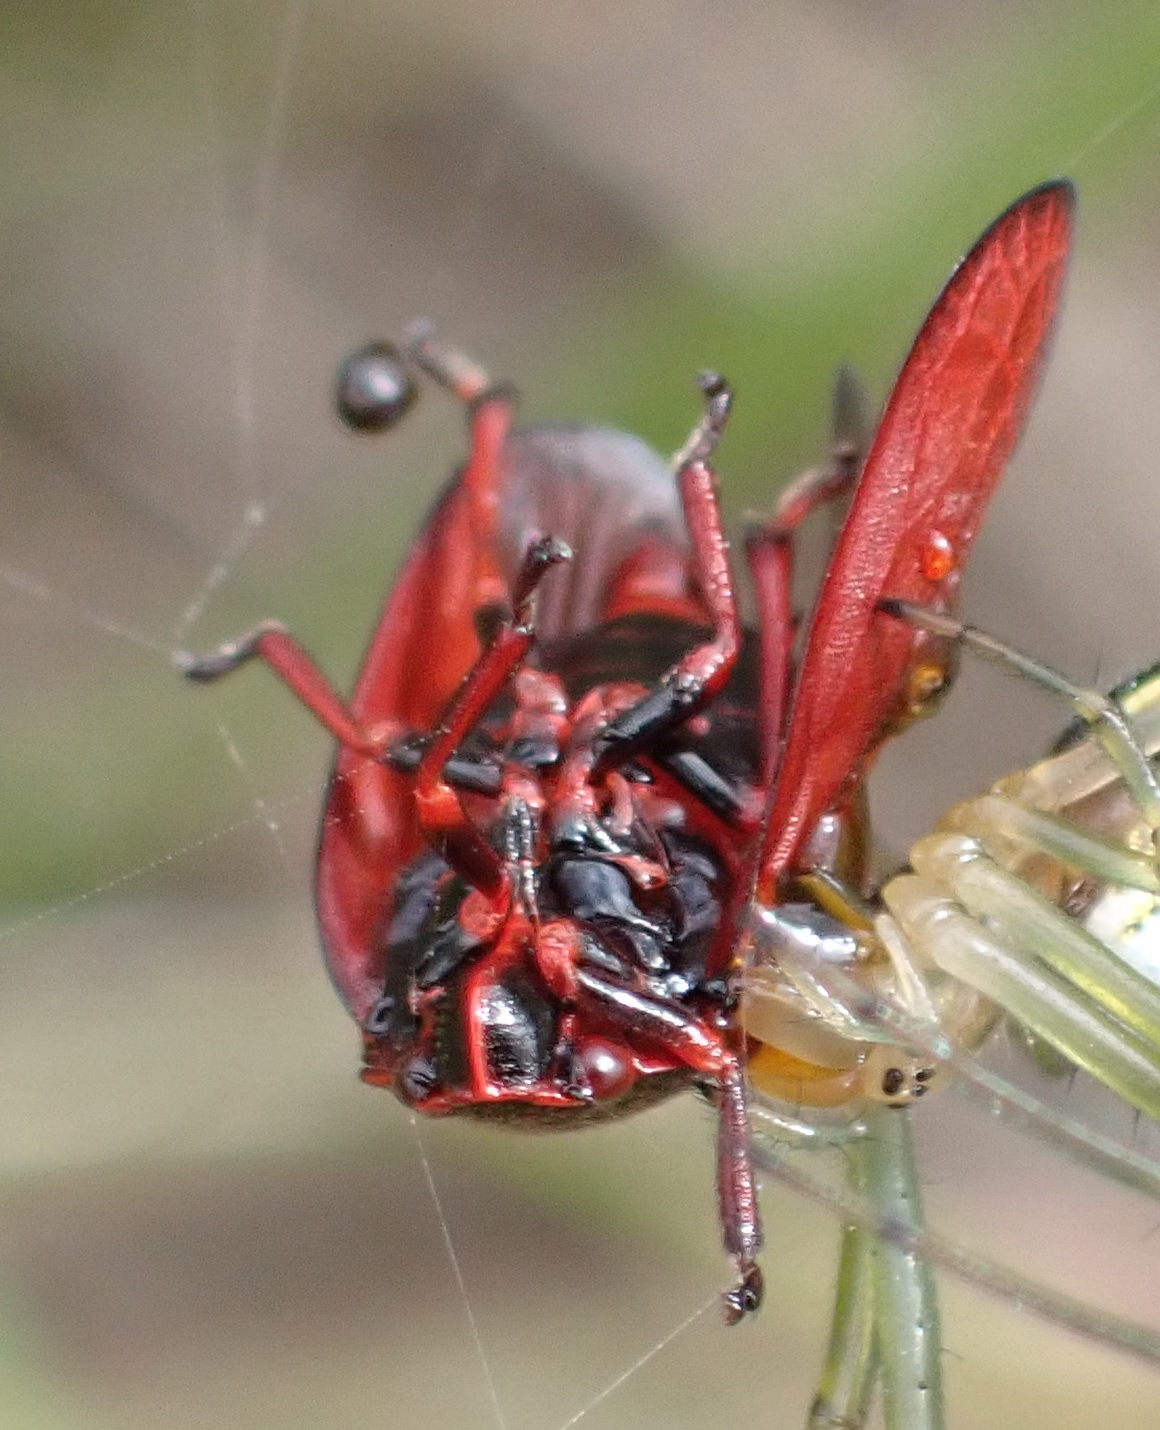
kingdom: Animalia
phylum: Arthropoda
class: Insecta
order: Hemiptera
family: Cercopidae
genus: Locris
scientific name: Locris transversa
